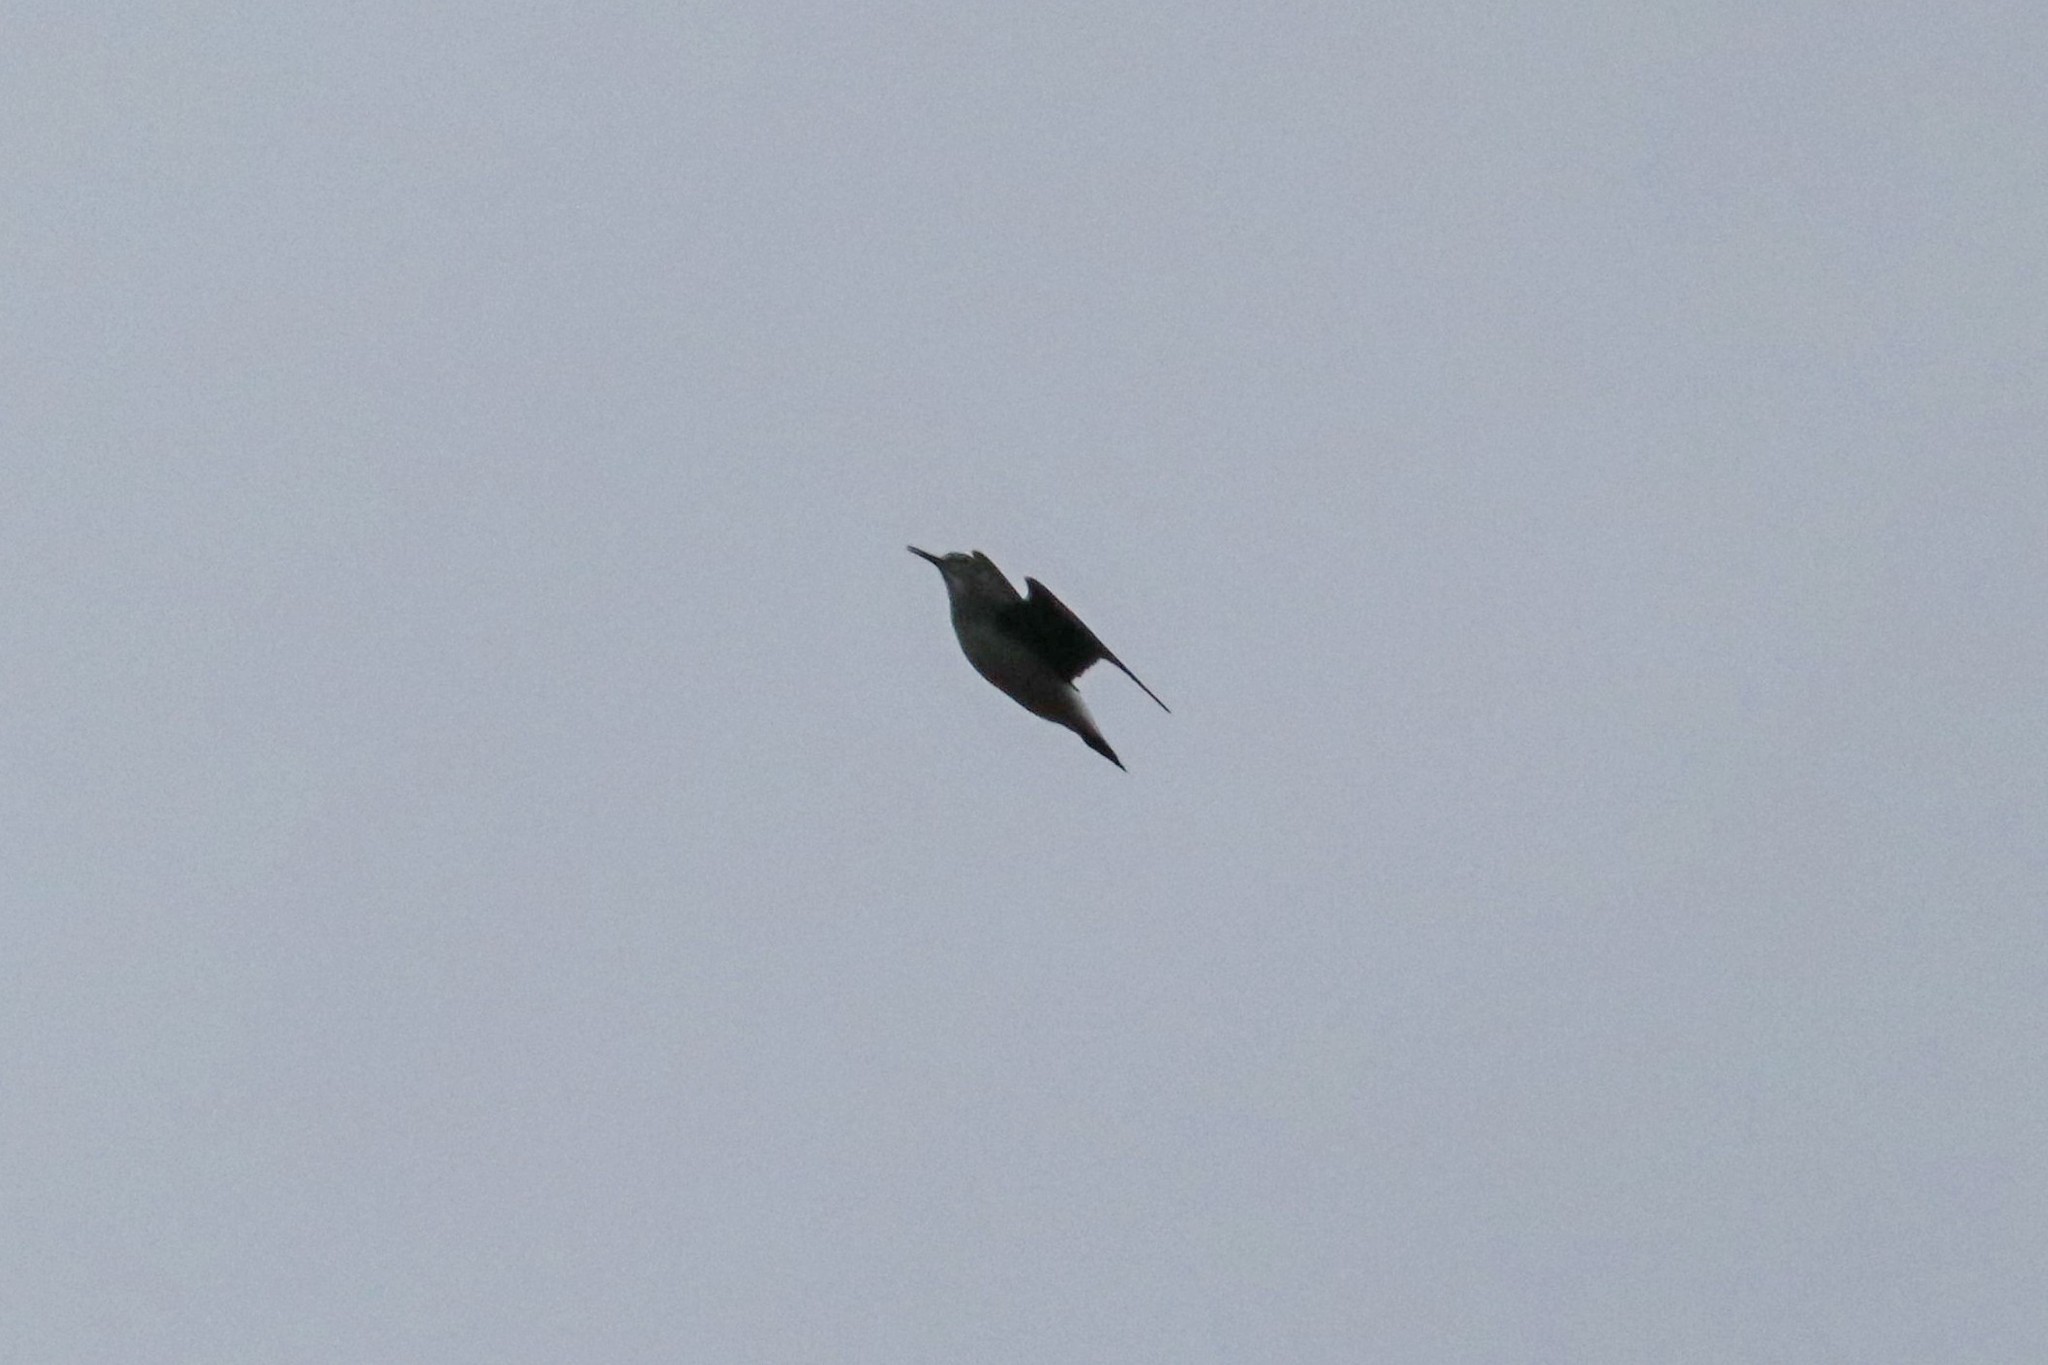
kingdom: Animalia
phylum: Chordata
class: Aves
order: Charadriiformes
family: Scolopacidae
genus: Tringa
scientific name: Tringa ochropus
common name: Green sandpiper
